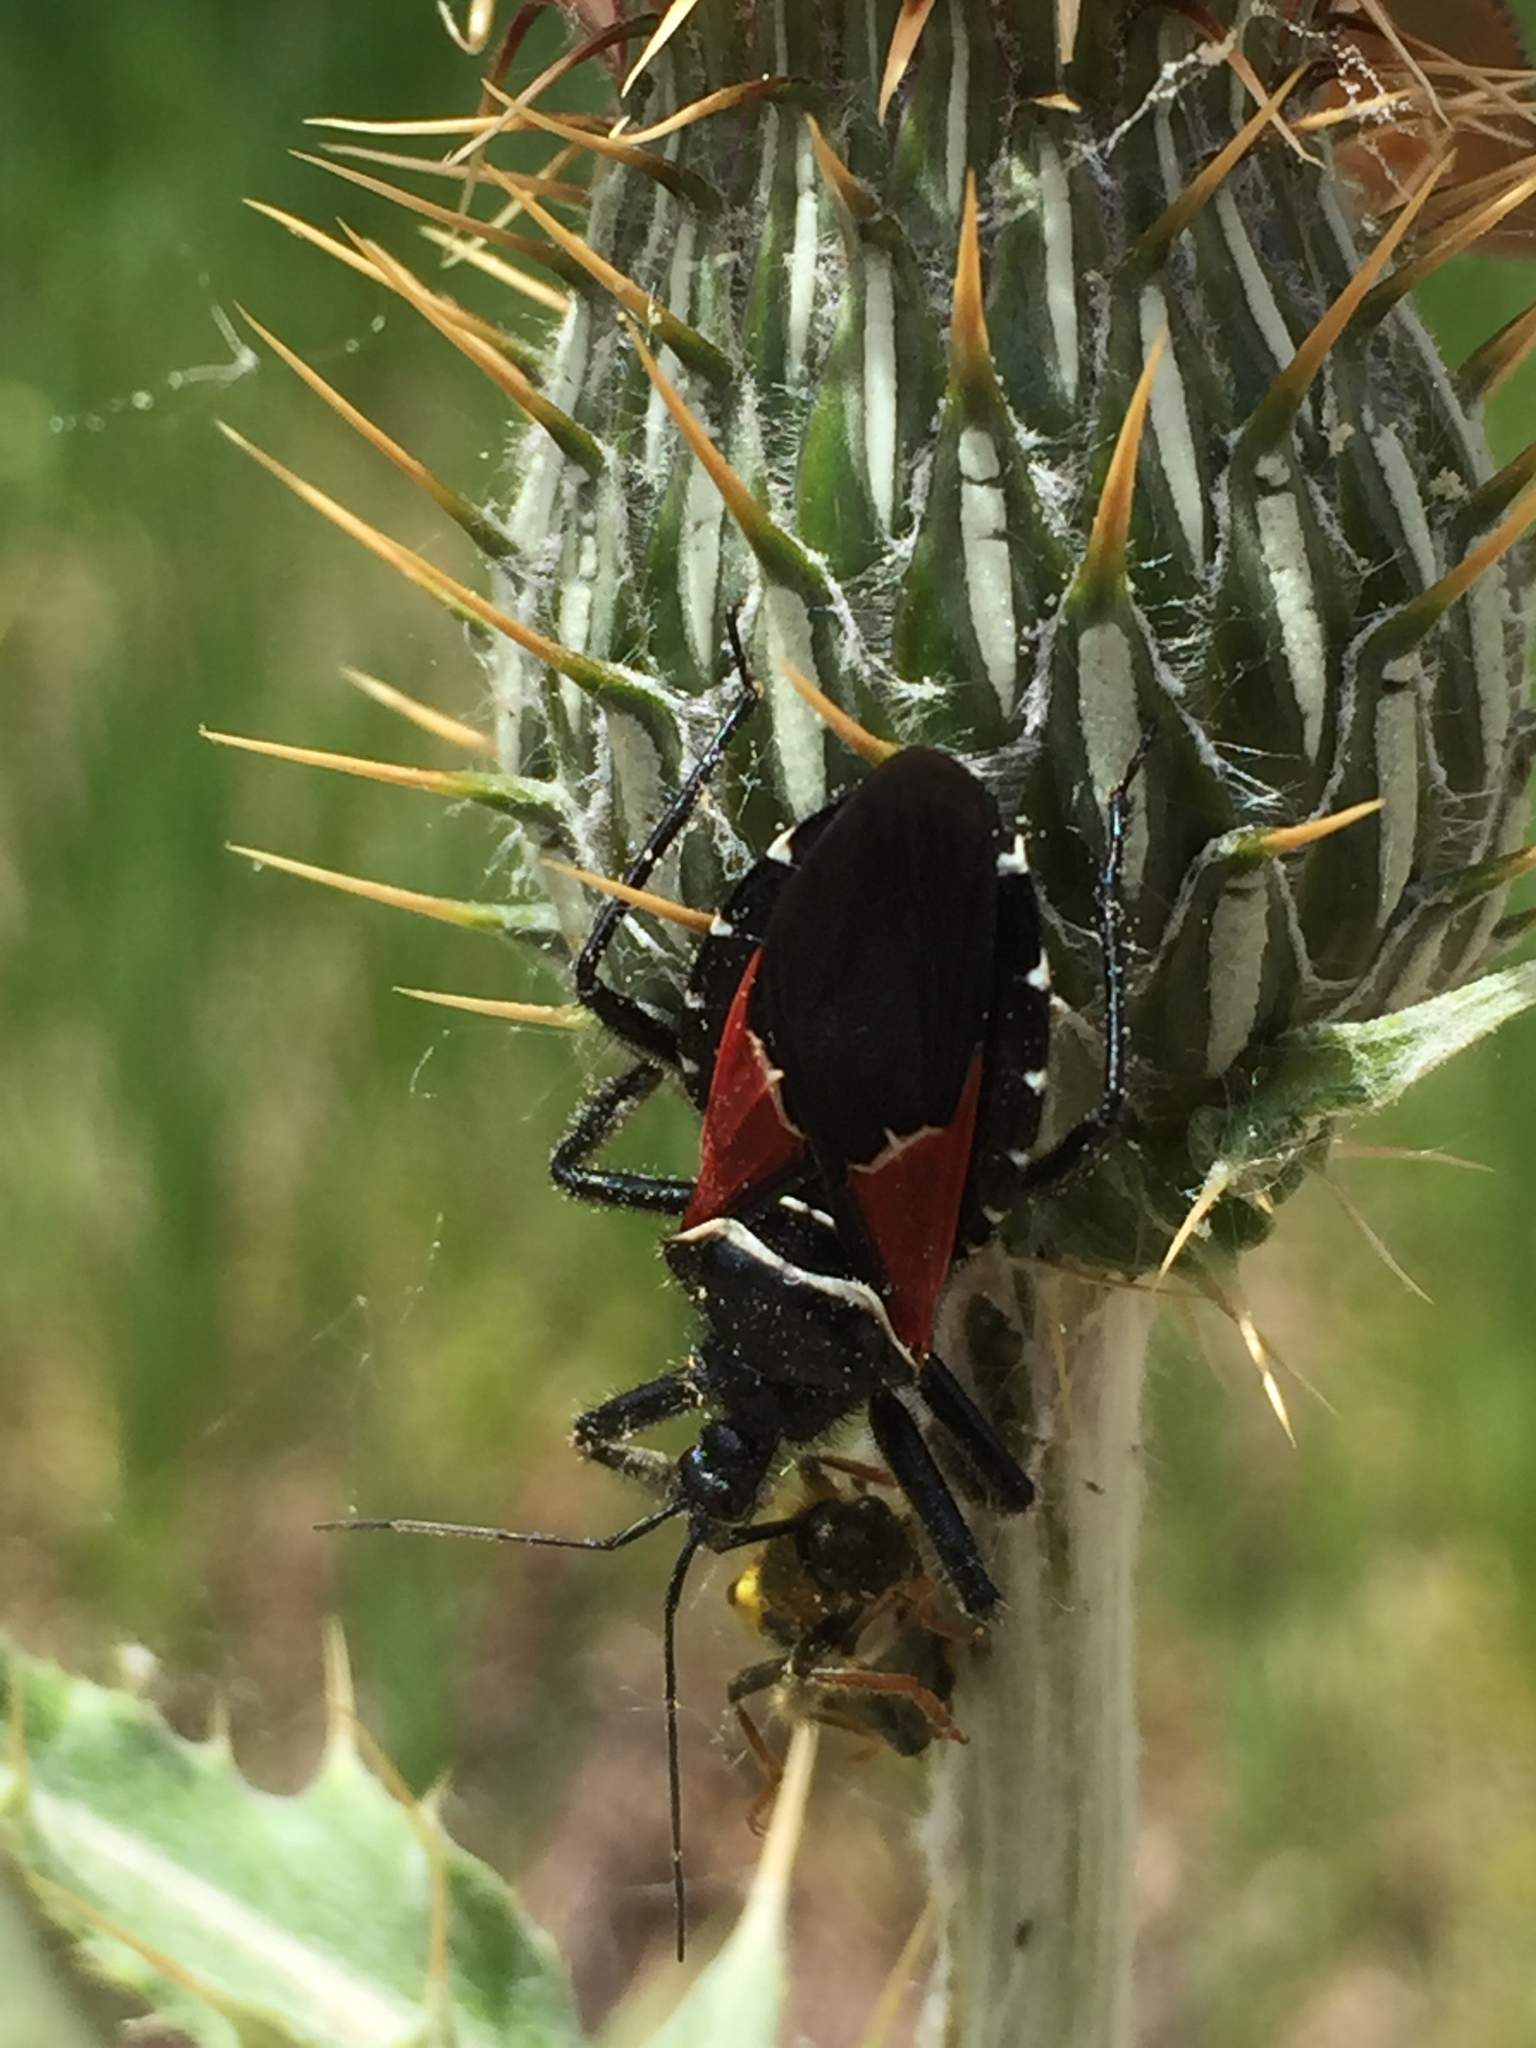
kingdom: Animalia
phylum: Arthropoda
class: Insecta
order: Hemiptera
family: Reduviidae
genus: Apiomerus
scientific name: Apiomerus montanus
